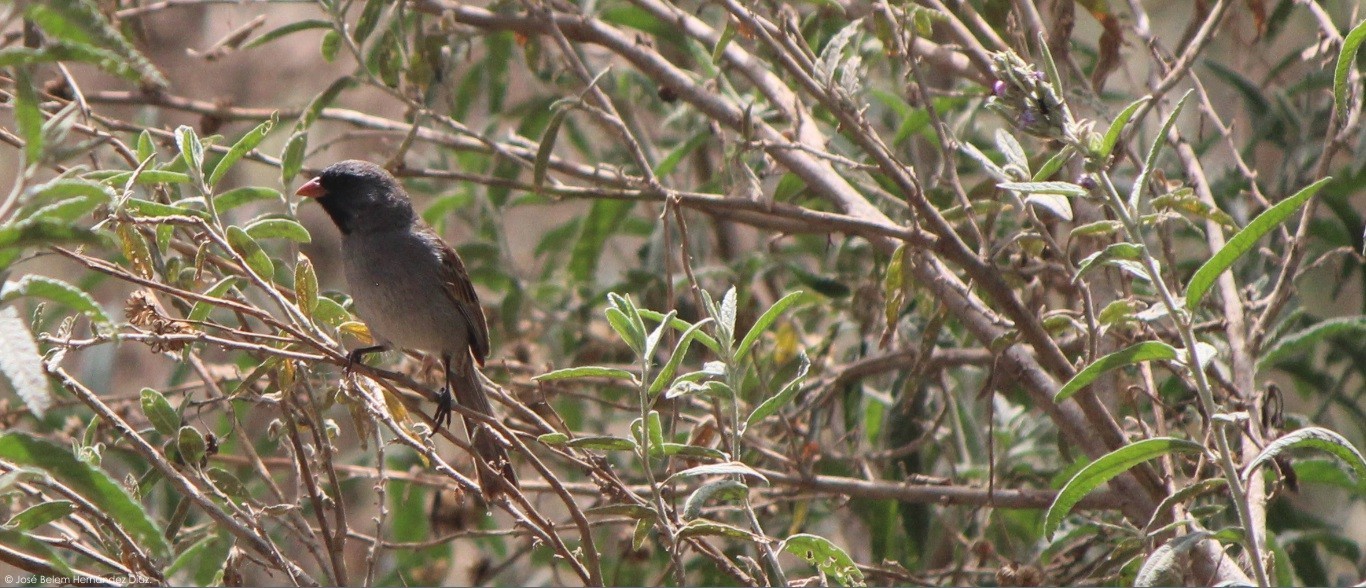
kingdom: Animalia
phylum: Chordata
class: Aves
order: Passeriformes
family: Passerellidae
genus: Spizella
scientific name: Spizella atrogularis
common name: Black-chinned sparrow
